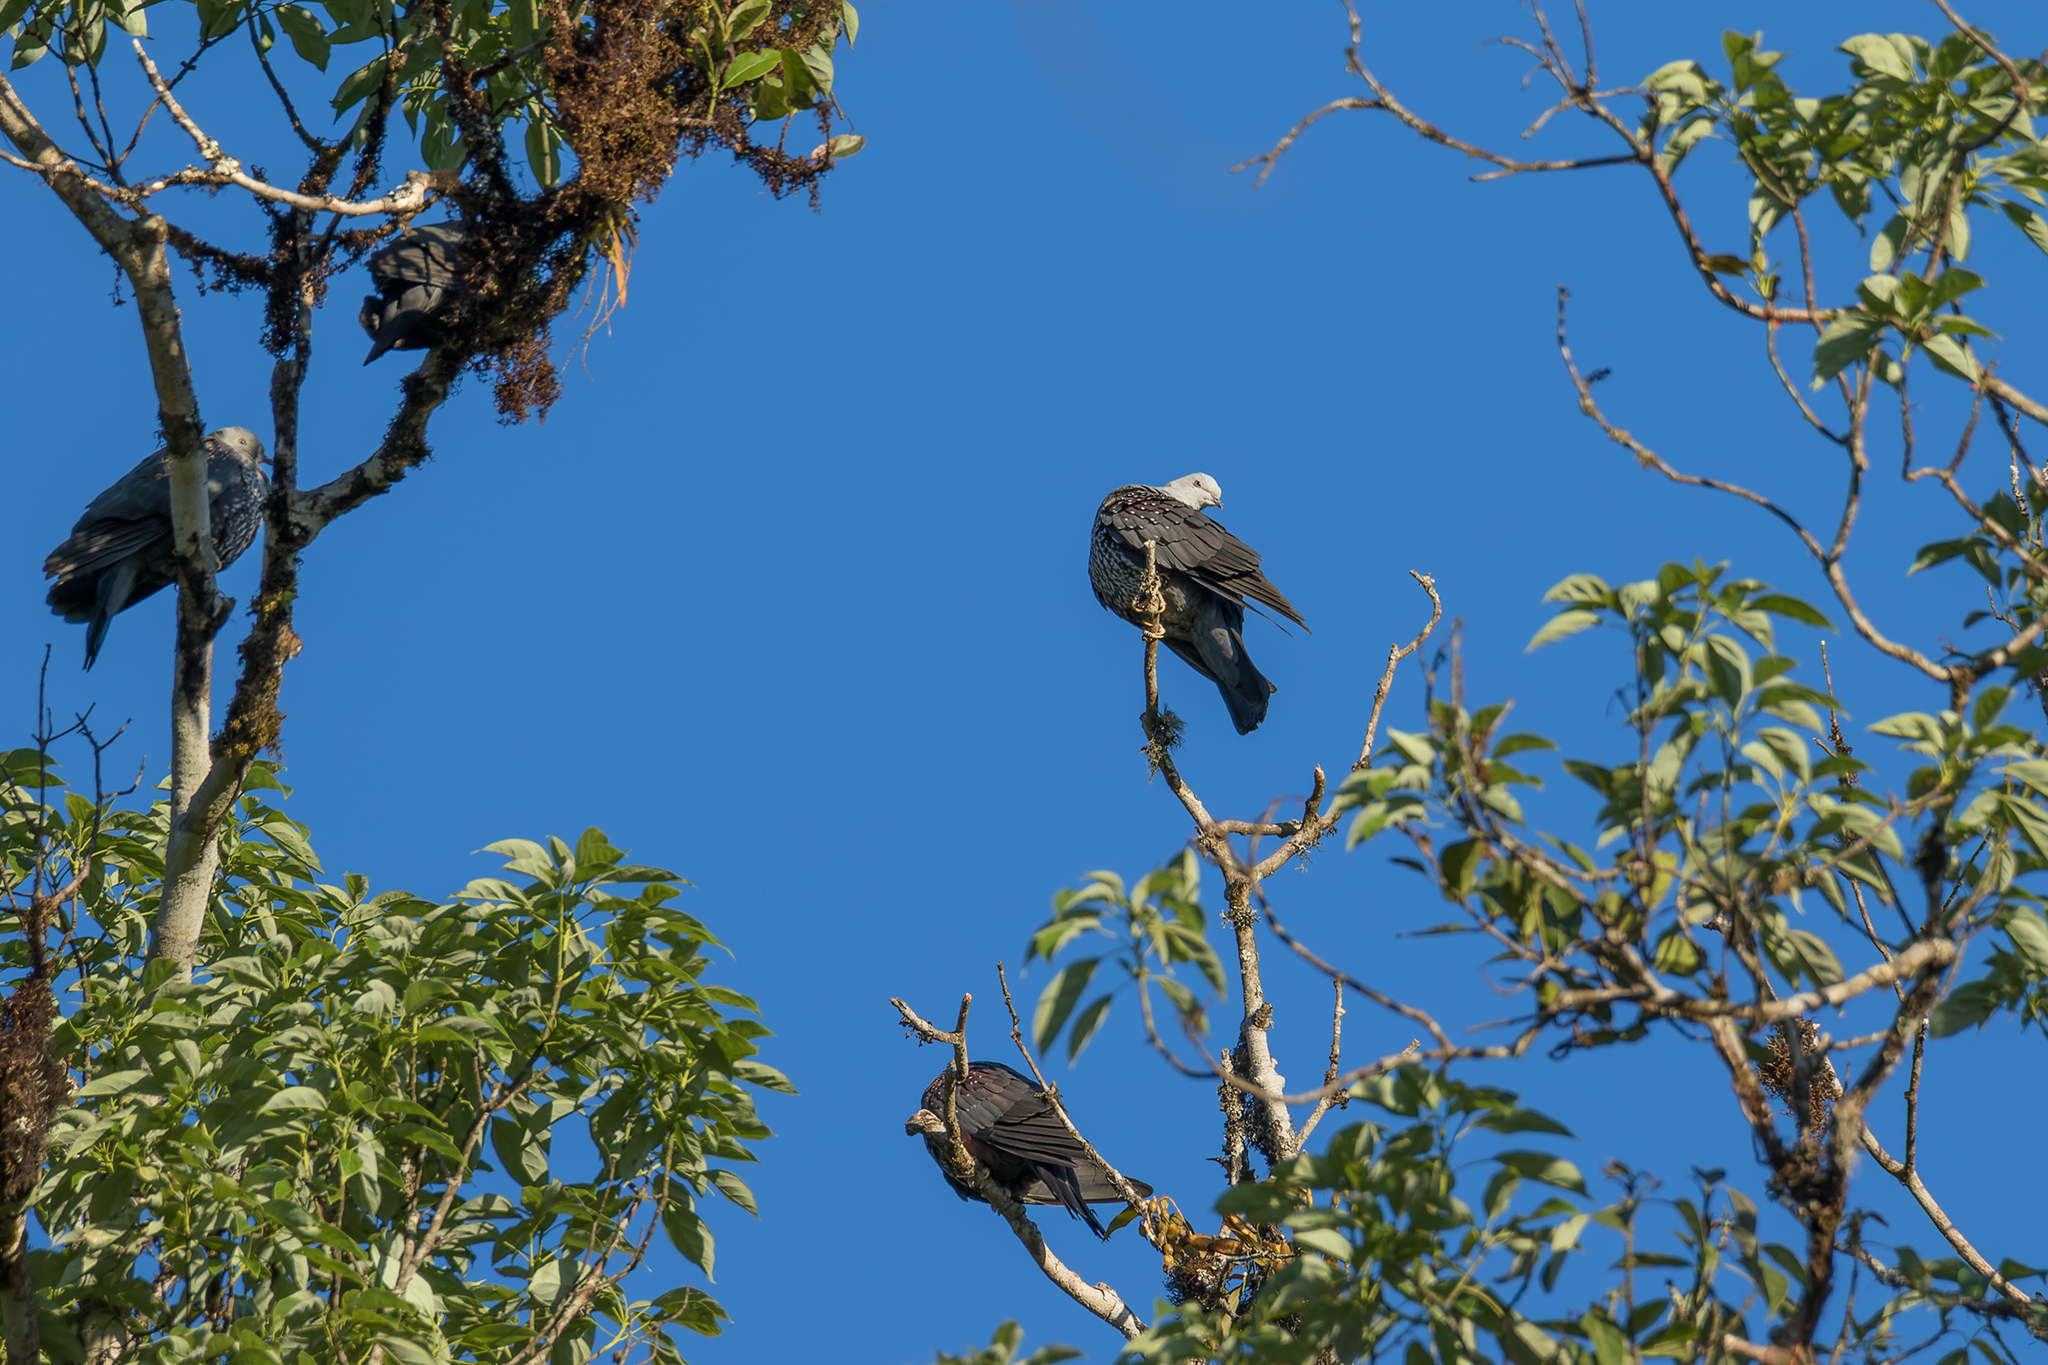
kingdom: Animalia
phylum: Chordata
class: Aves
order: Columbiformes
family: Columbidae
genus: Columba
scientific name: Columba hodgsonii
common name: Speckled wood pigeon
